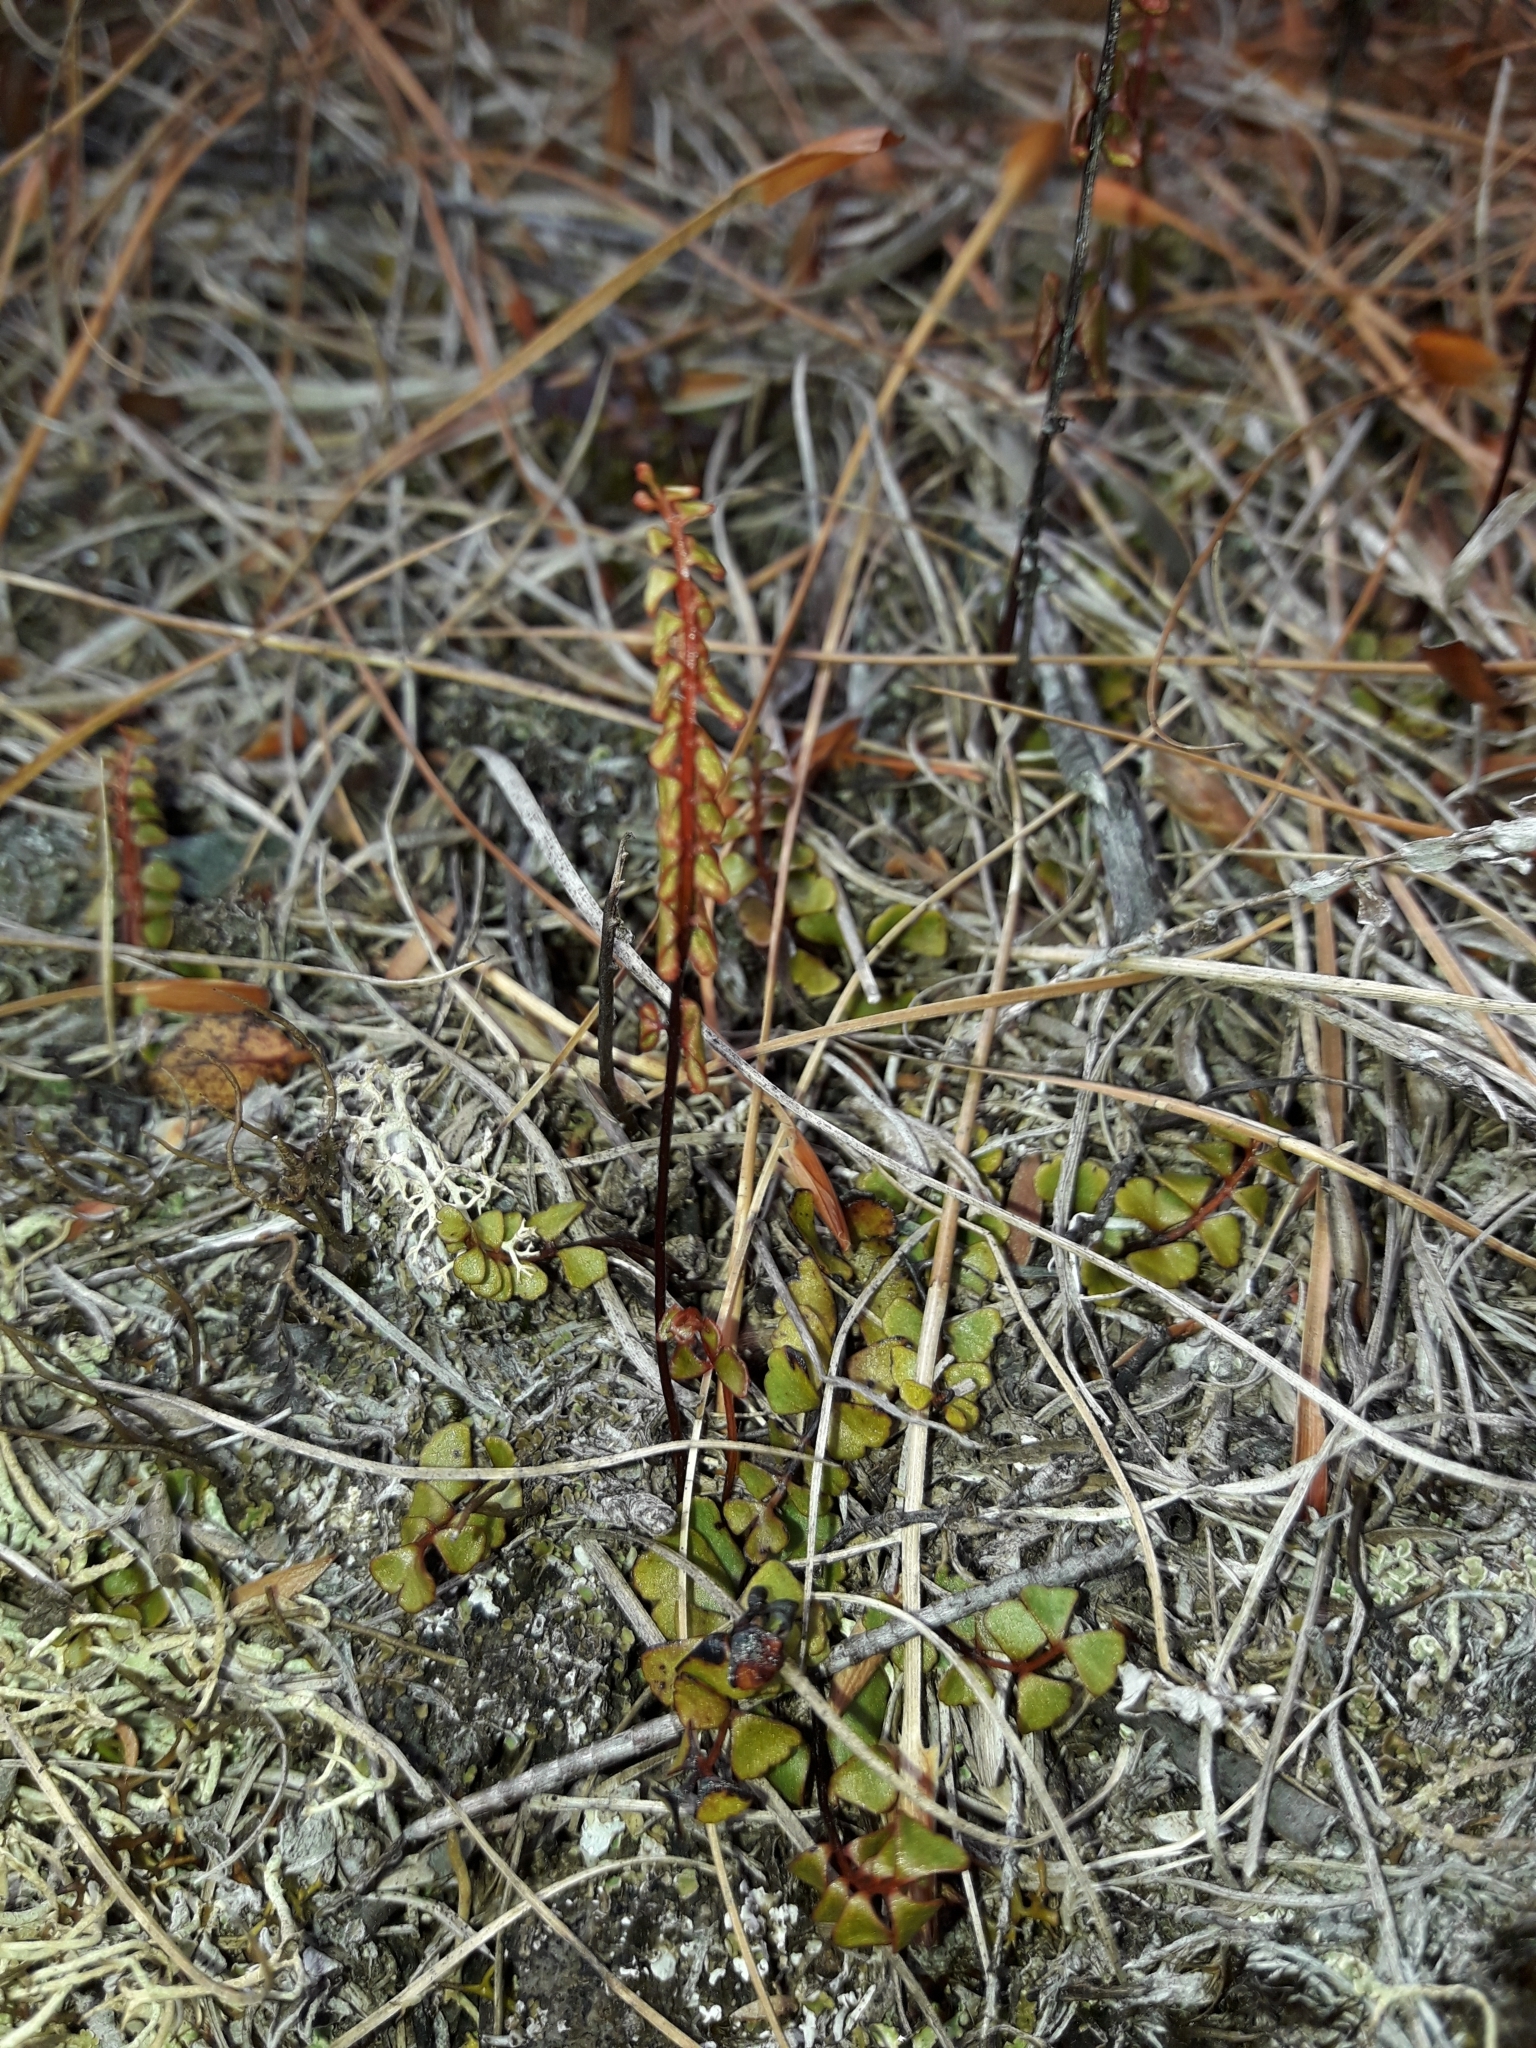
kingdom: Plantae
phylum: Tracheophyta
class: Polypodiopsida
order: Polypodiales
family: Lindsaeaceae
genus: Lindsaea
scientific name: Lindsaea linearis
